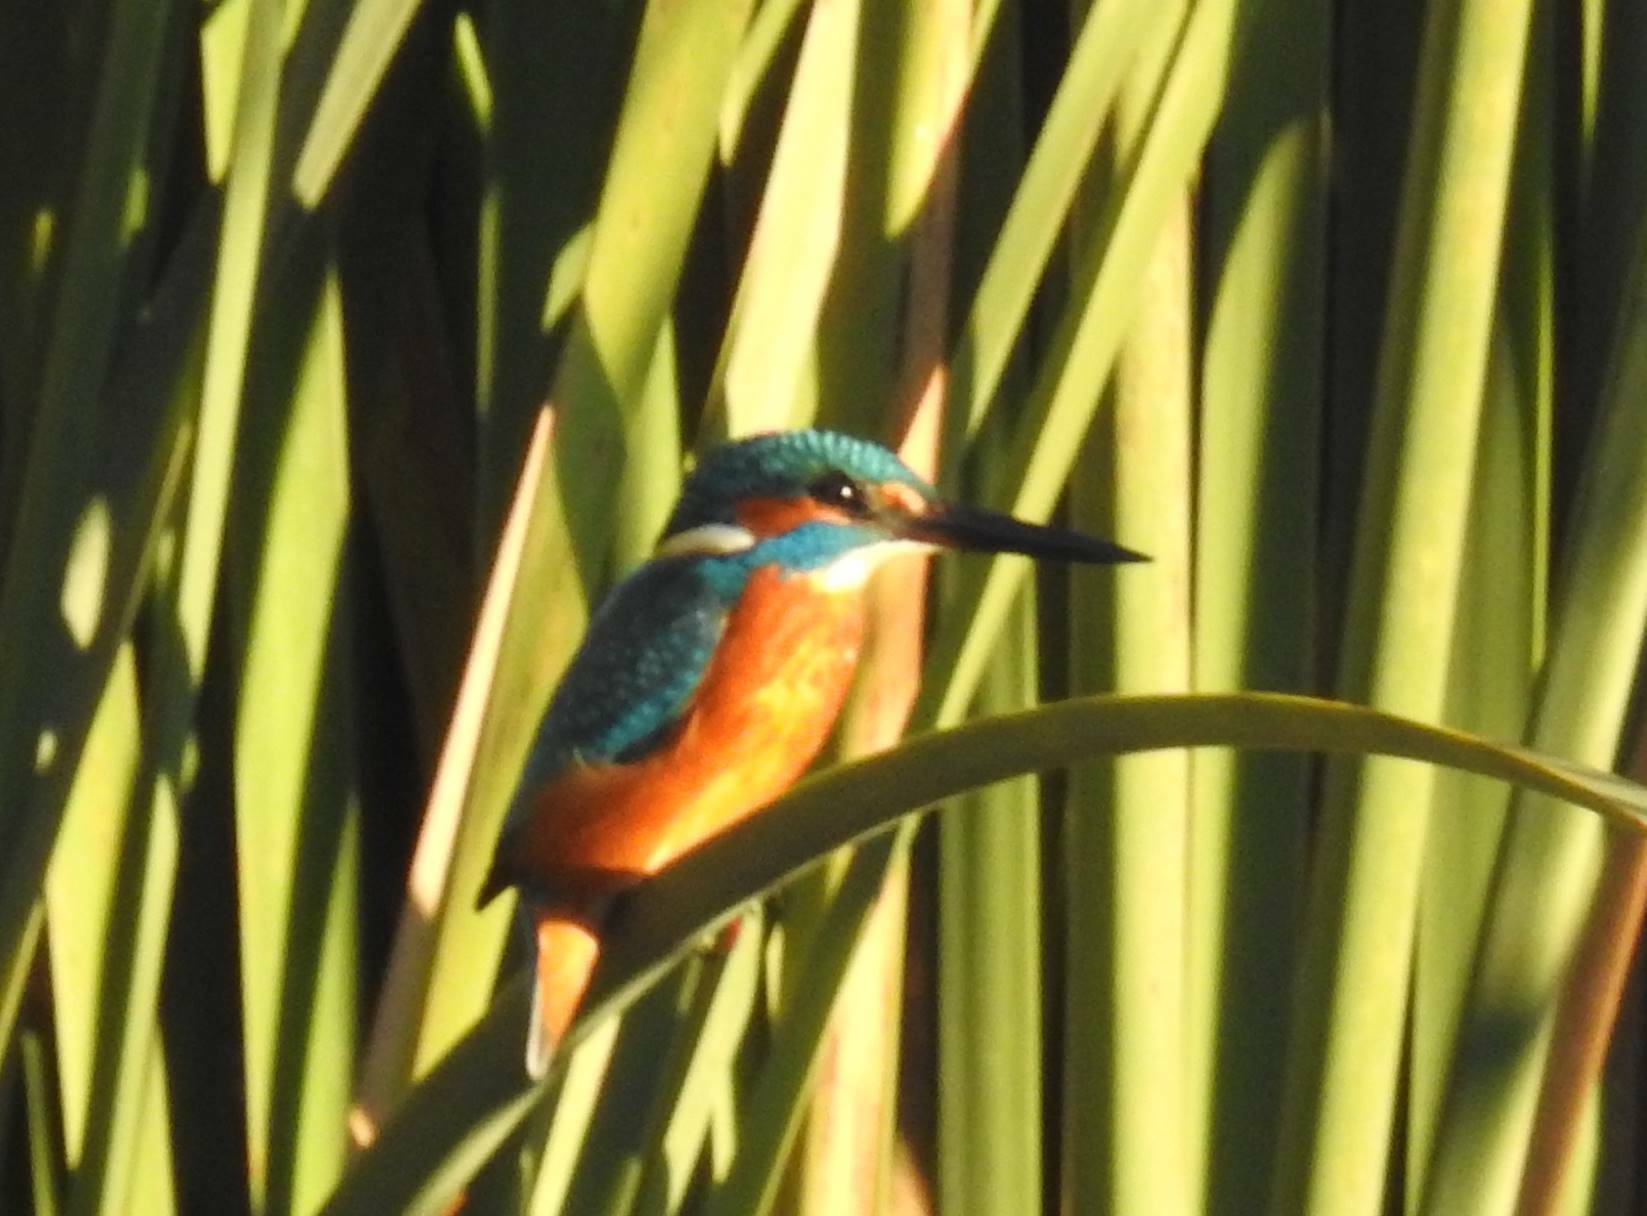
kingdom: Animalia
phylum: Chordata
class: Aves
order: Coraciiformes
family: Alcedinidae
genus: Alcedo
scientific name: Alcedo atthis
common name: Common kingfisher
